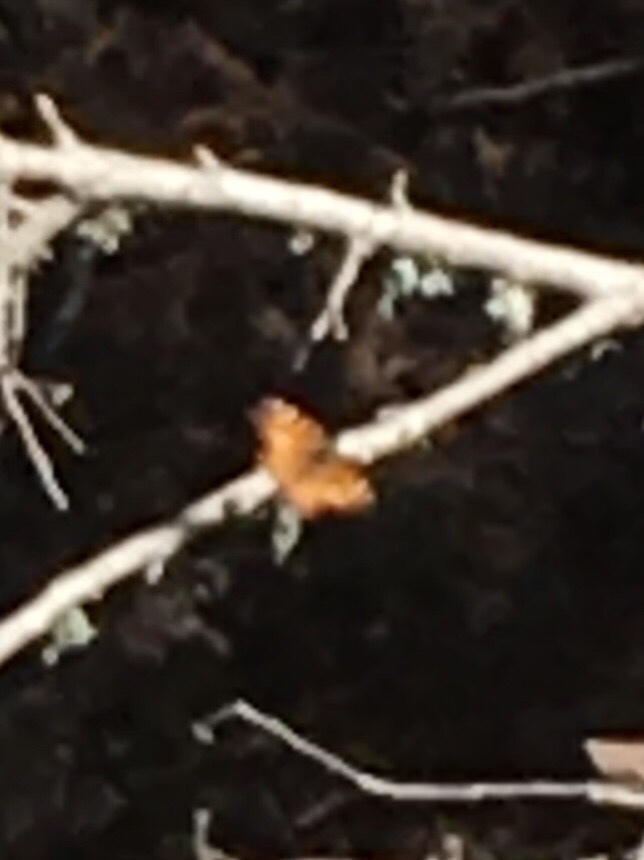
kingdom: Animalia
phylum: Arthropoda
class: Insecta
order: Lepidoptera
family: Nymphalidae
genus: Nymphalis
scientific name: Nymphalis californica
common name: California tortoiseshell
